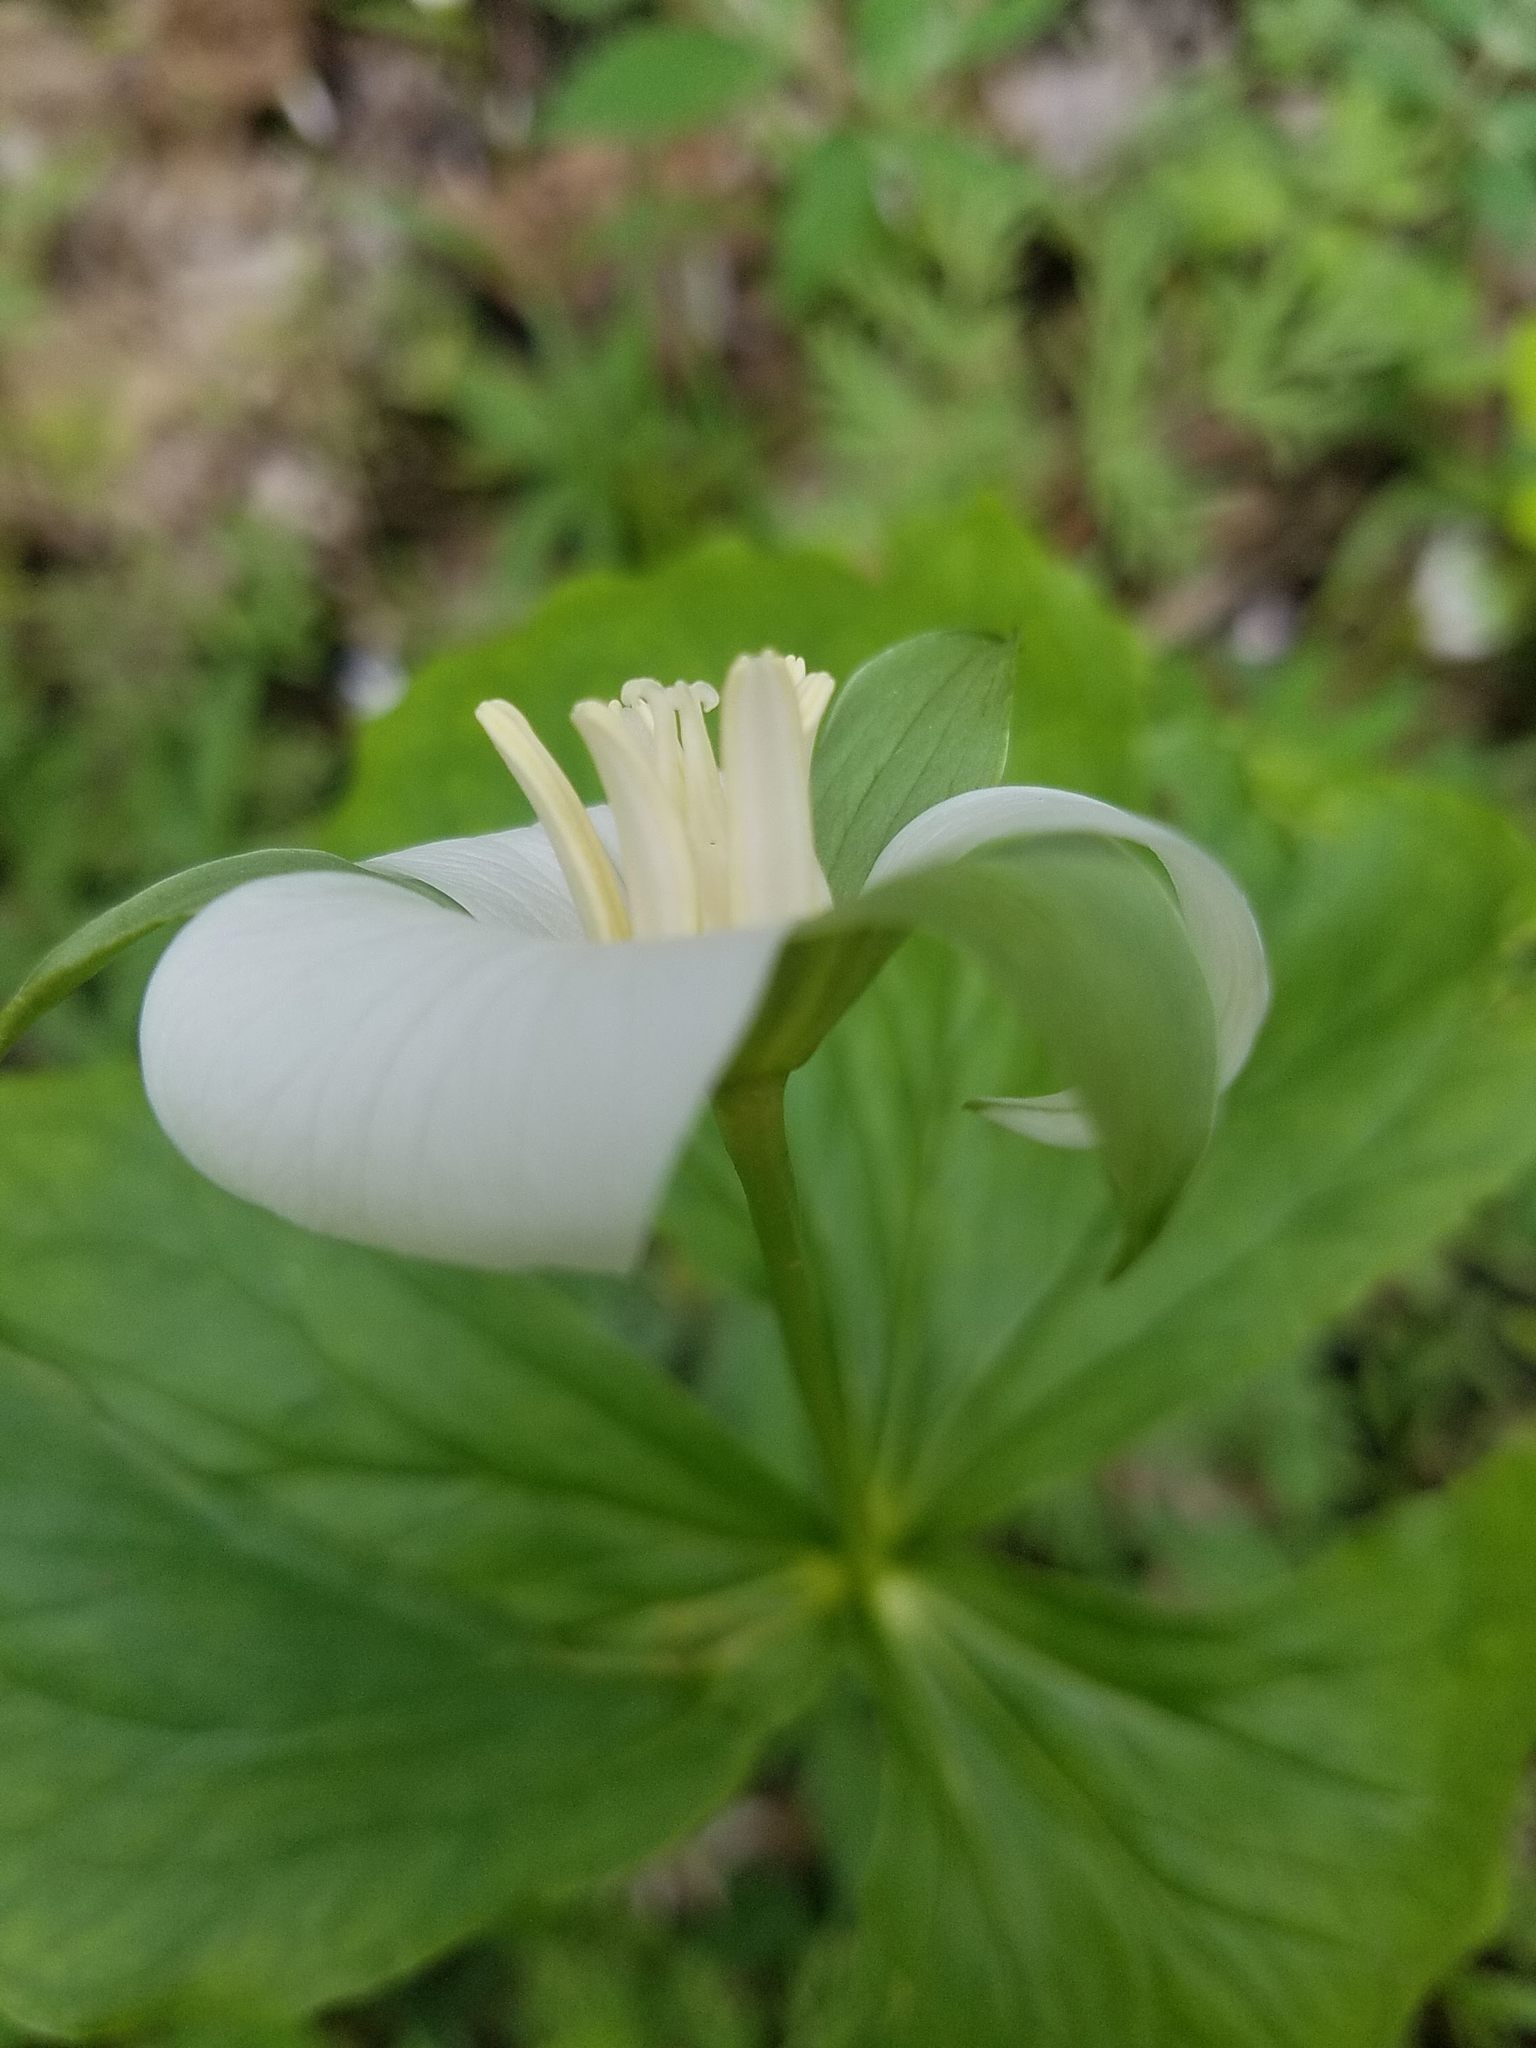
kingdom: Plantae
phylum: Tracheophyta
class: Liliopsida
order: Liliales
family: Melanthiaceae
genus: Trillium
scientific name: Trillium flexipes
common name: Drooping trillium
